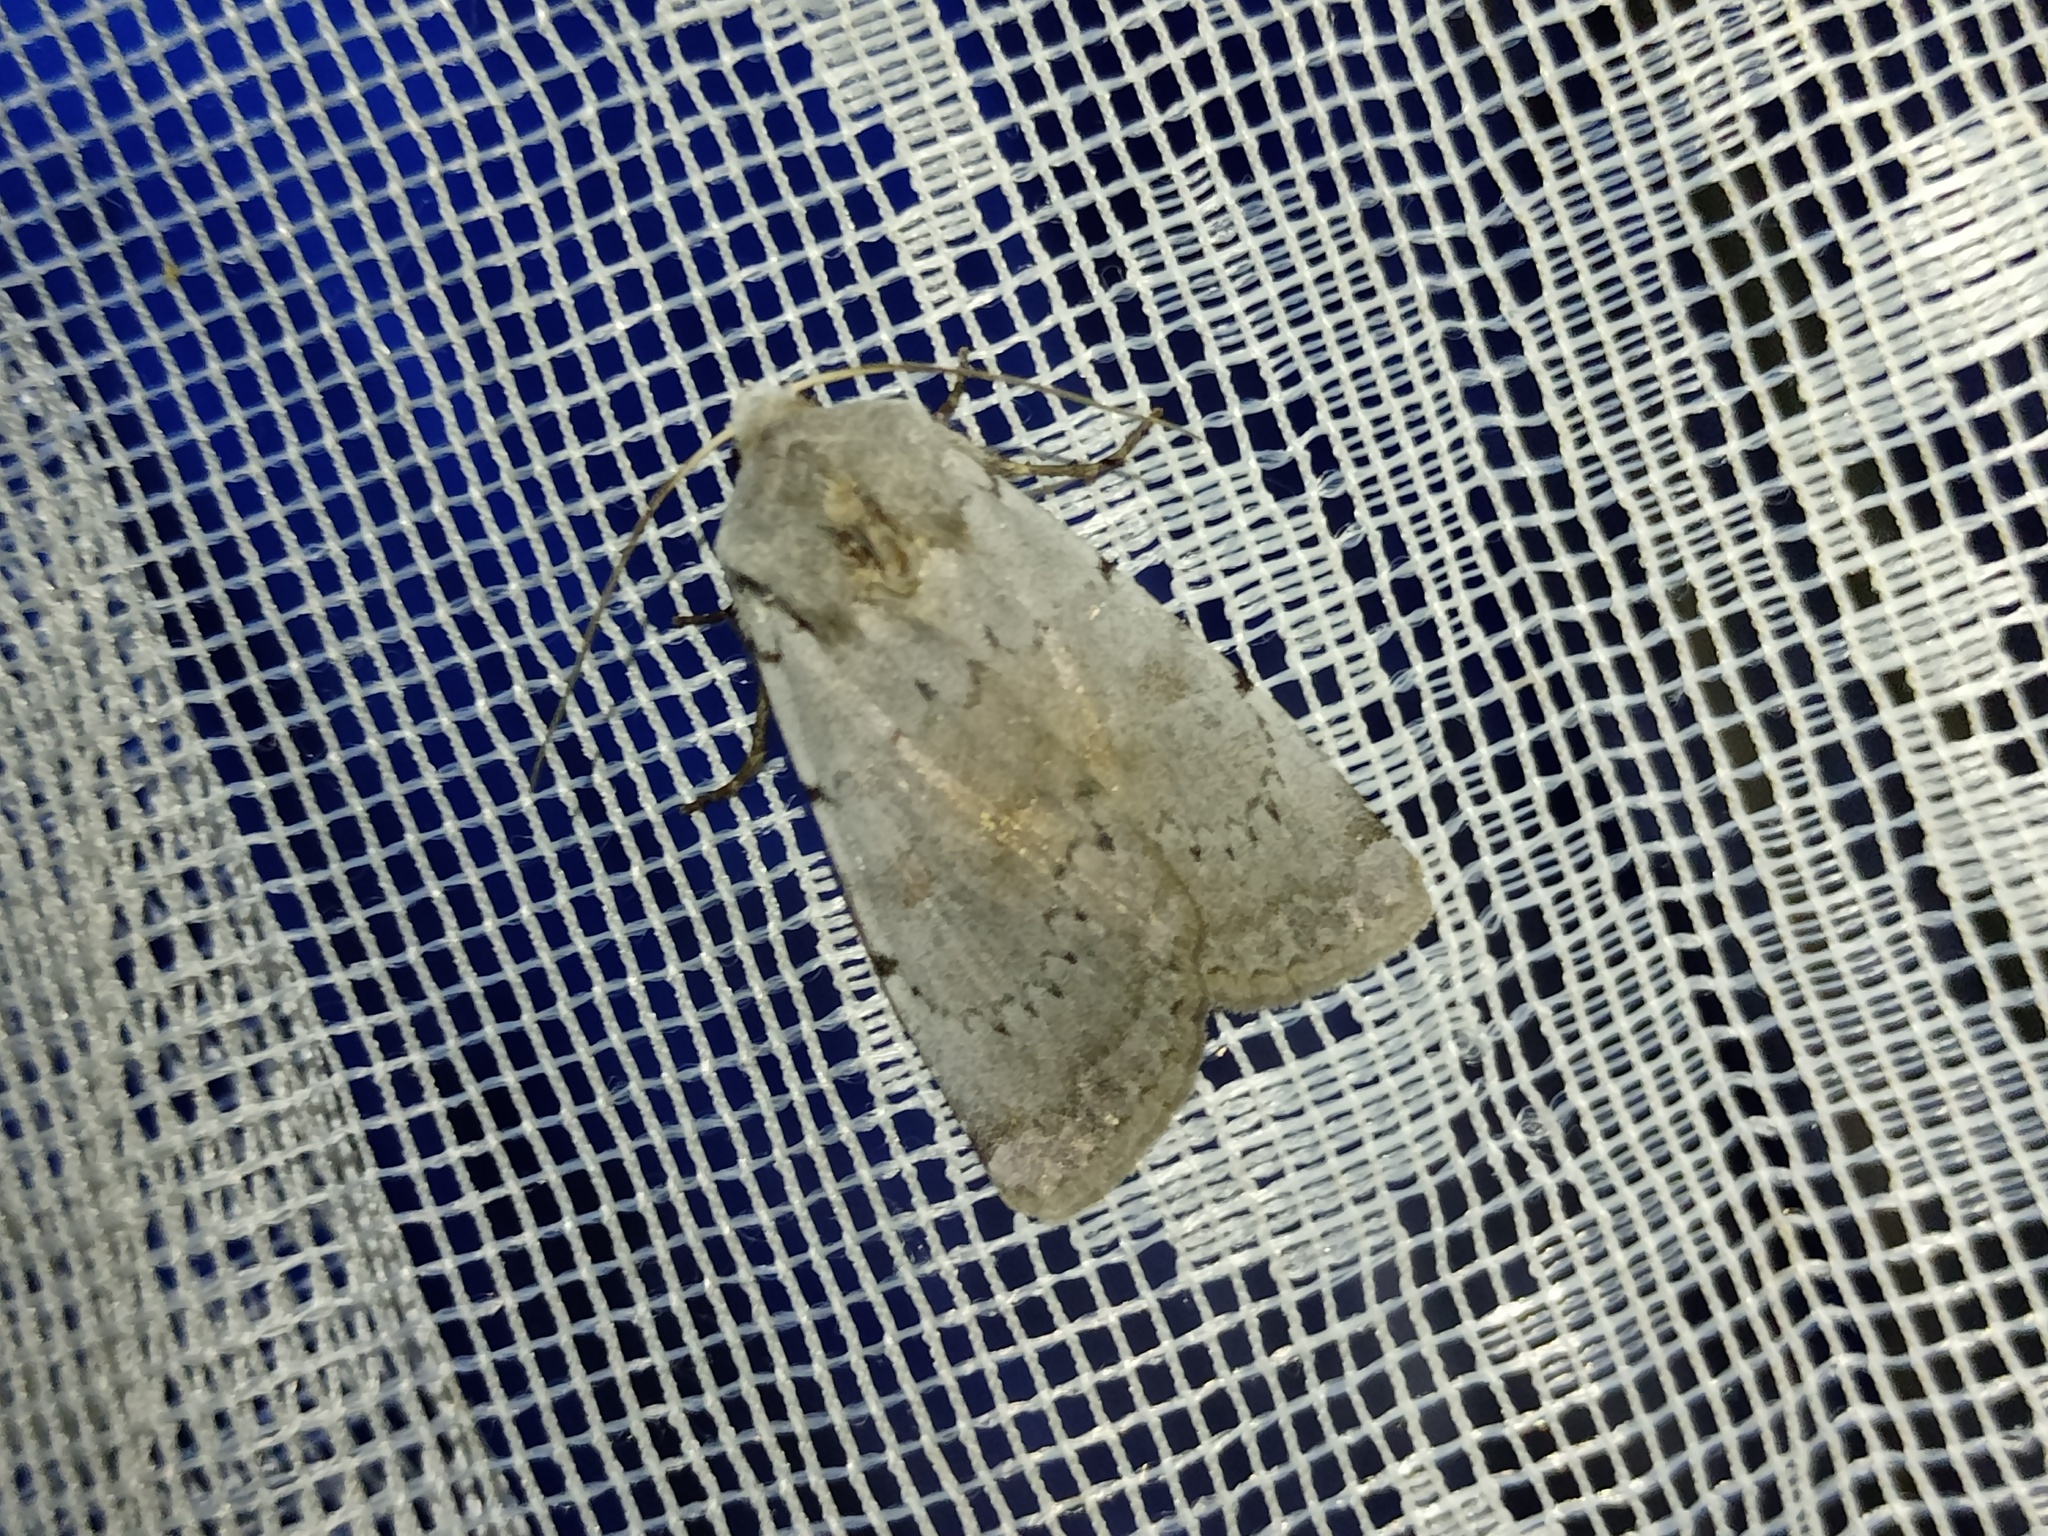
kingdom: Animalia
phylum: Arthropoda
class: Insecta
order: Lepidoptera
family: Noctuidae
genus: Xestia
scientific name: Xestia ashworthii
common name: Ashworth's rustic
